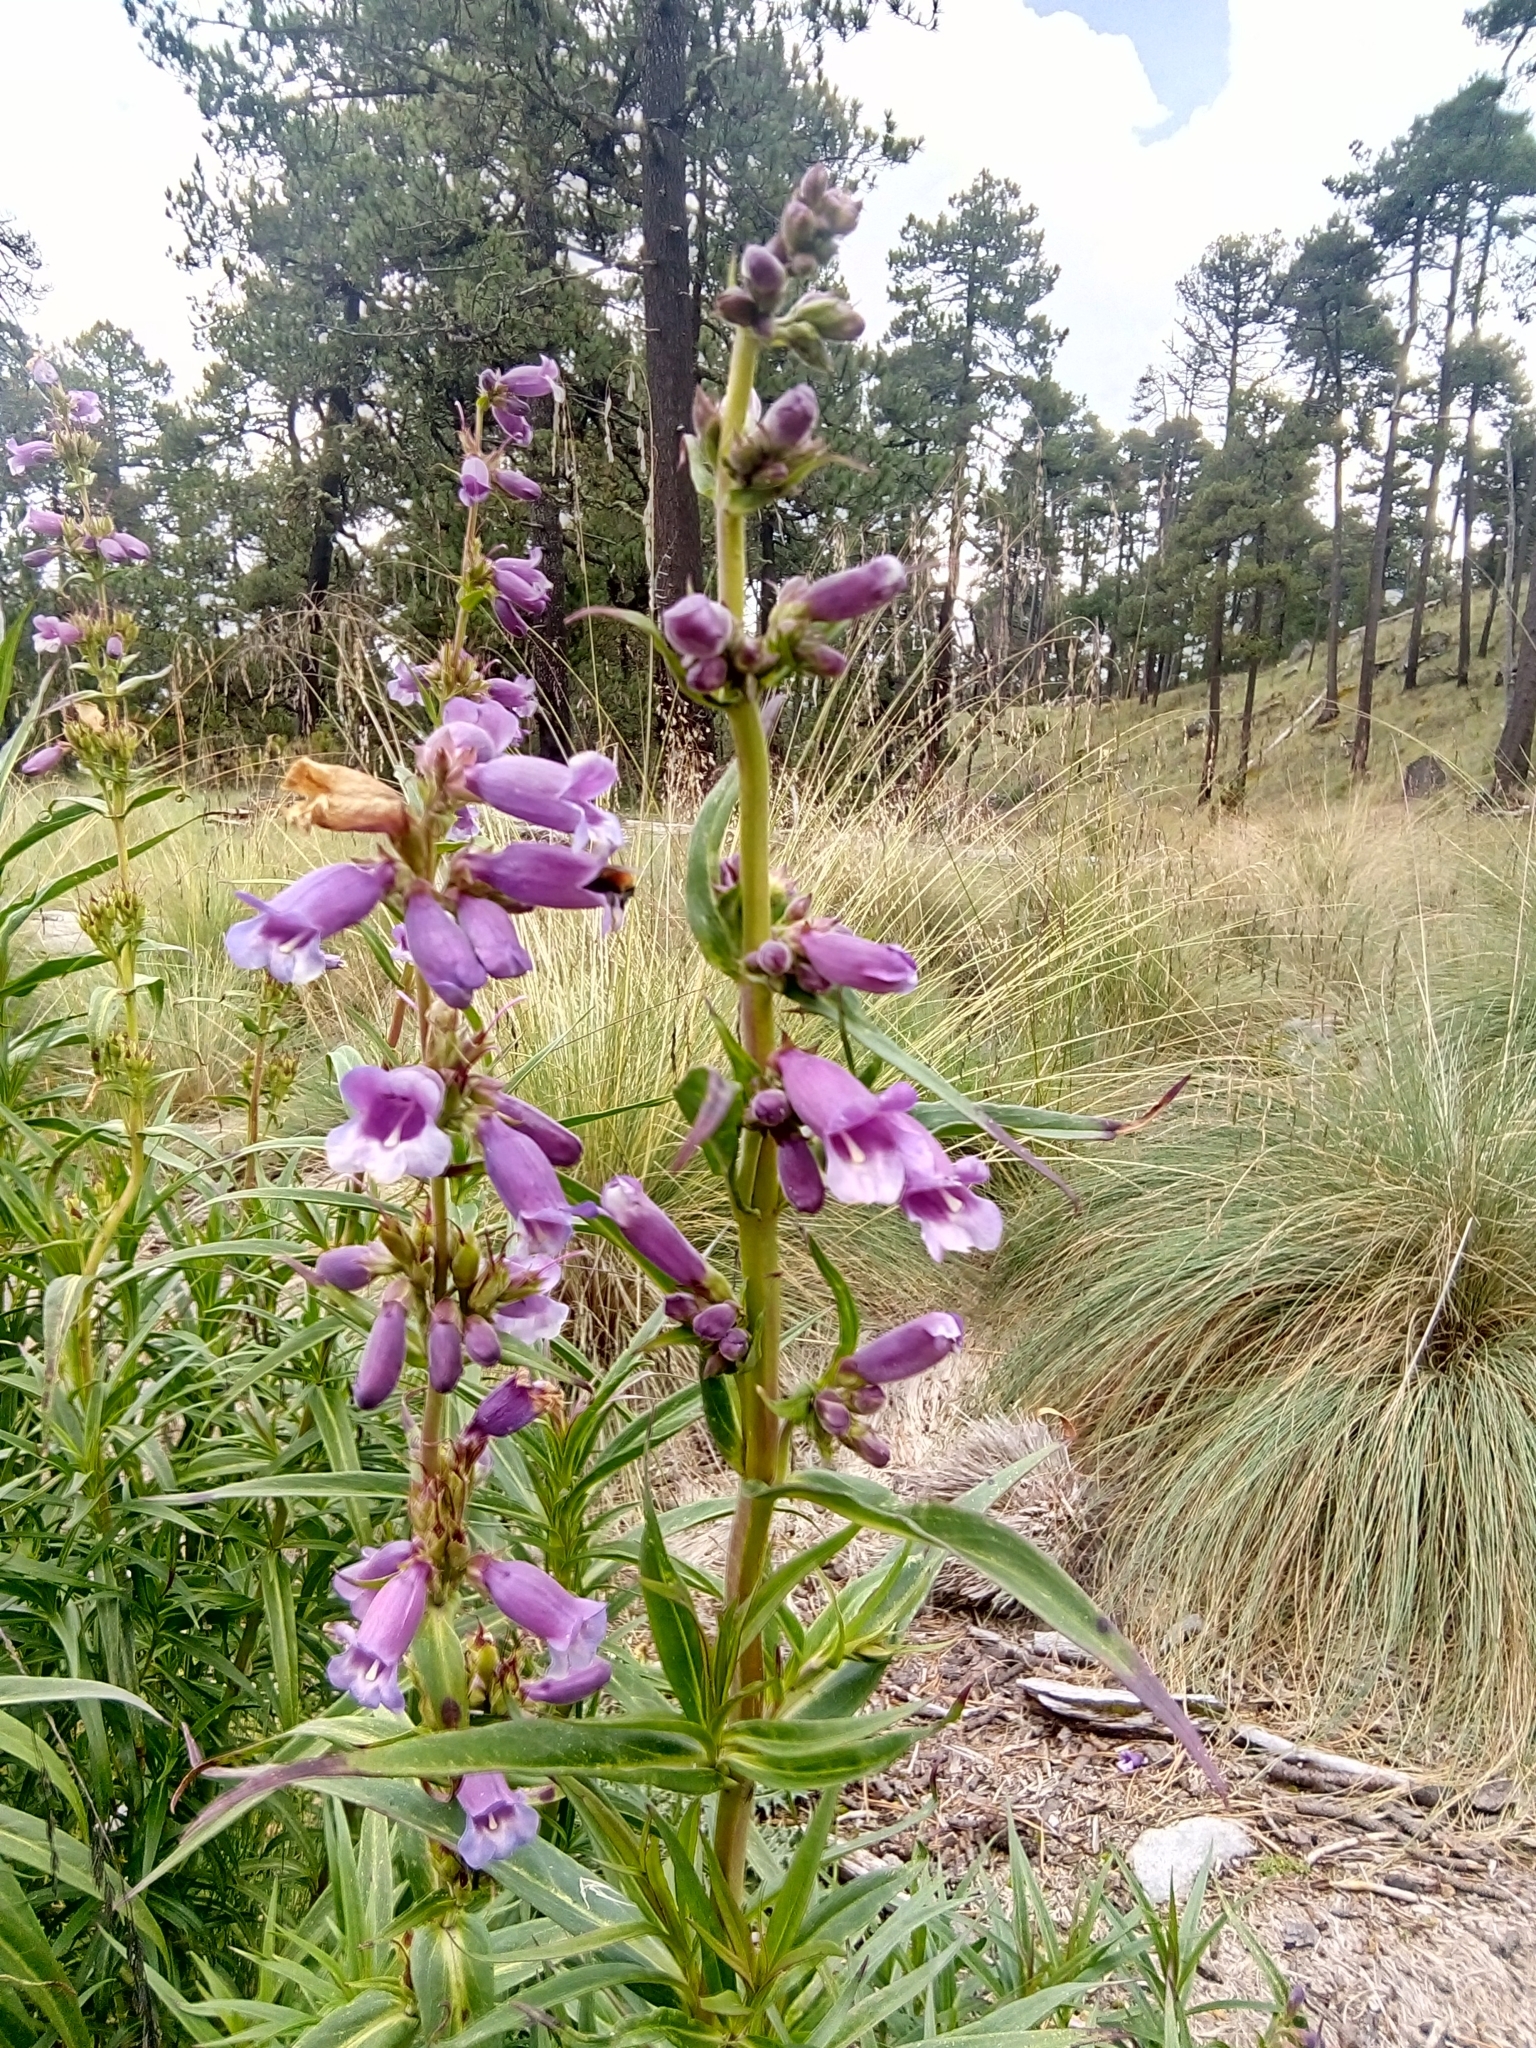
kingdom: Plantae
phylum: Tracheophyta
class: Magnoliopsida
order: Lamiales
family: Plantaginaceae
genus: Penstemon
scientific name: Penstemon gentianoides
